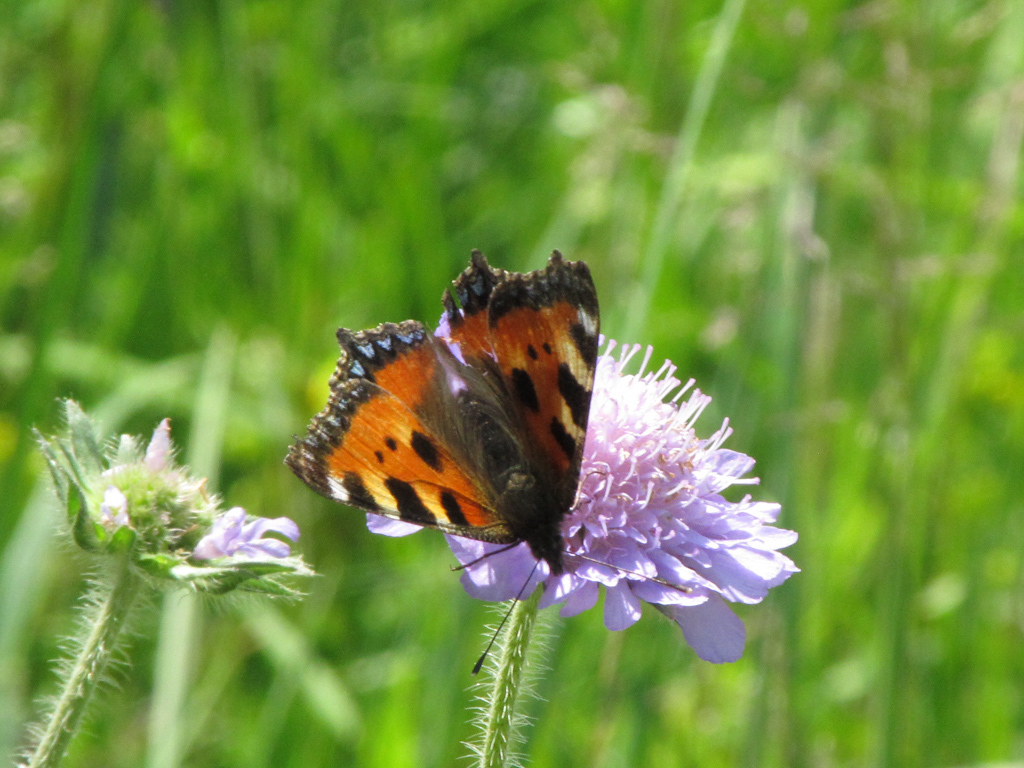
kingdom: Animalia
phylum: Arthropoda
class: Insecta
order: Lepidoptera
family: Nymphalidae
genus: Aglais
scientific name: Aglais urticae
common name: Small tortoiseshell
